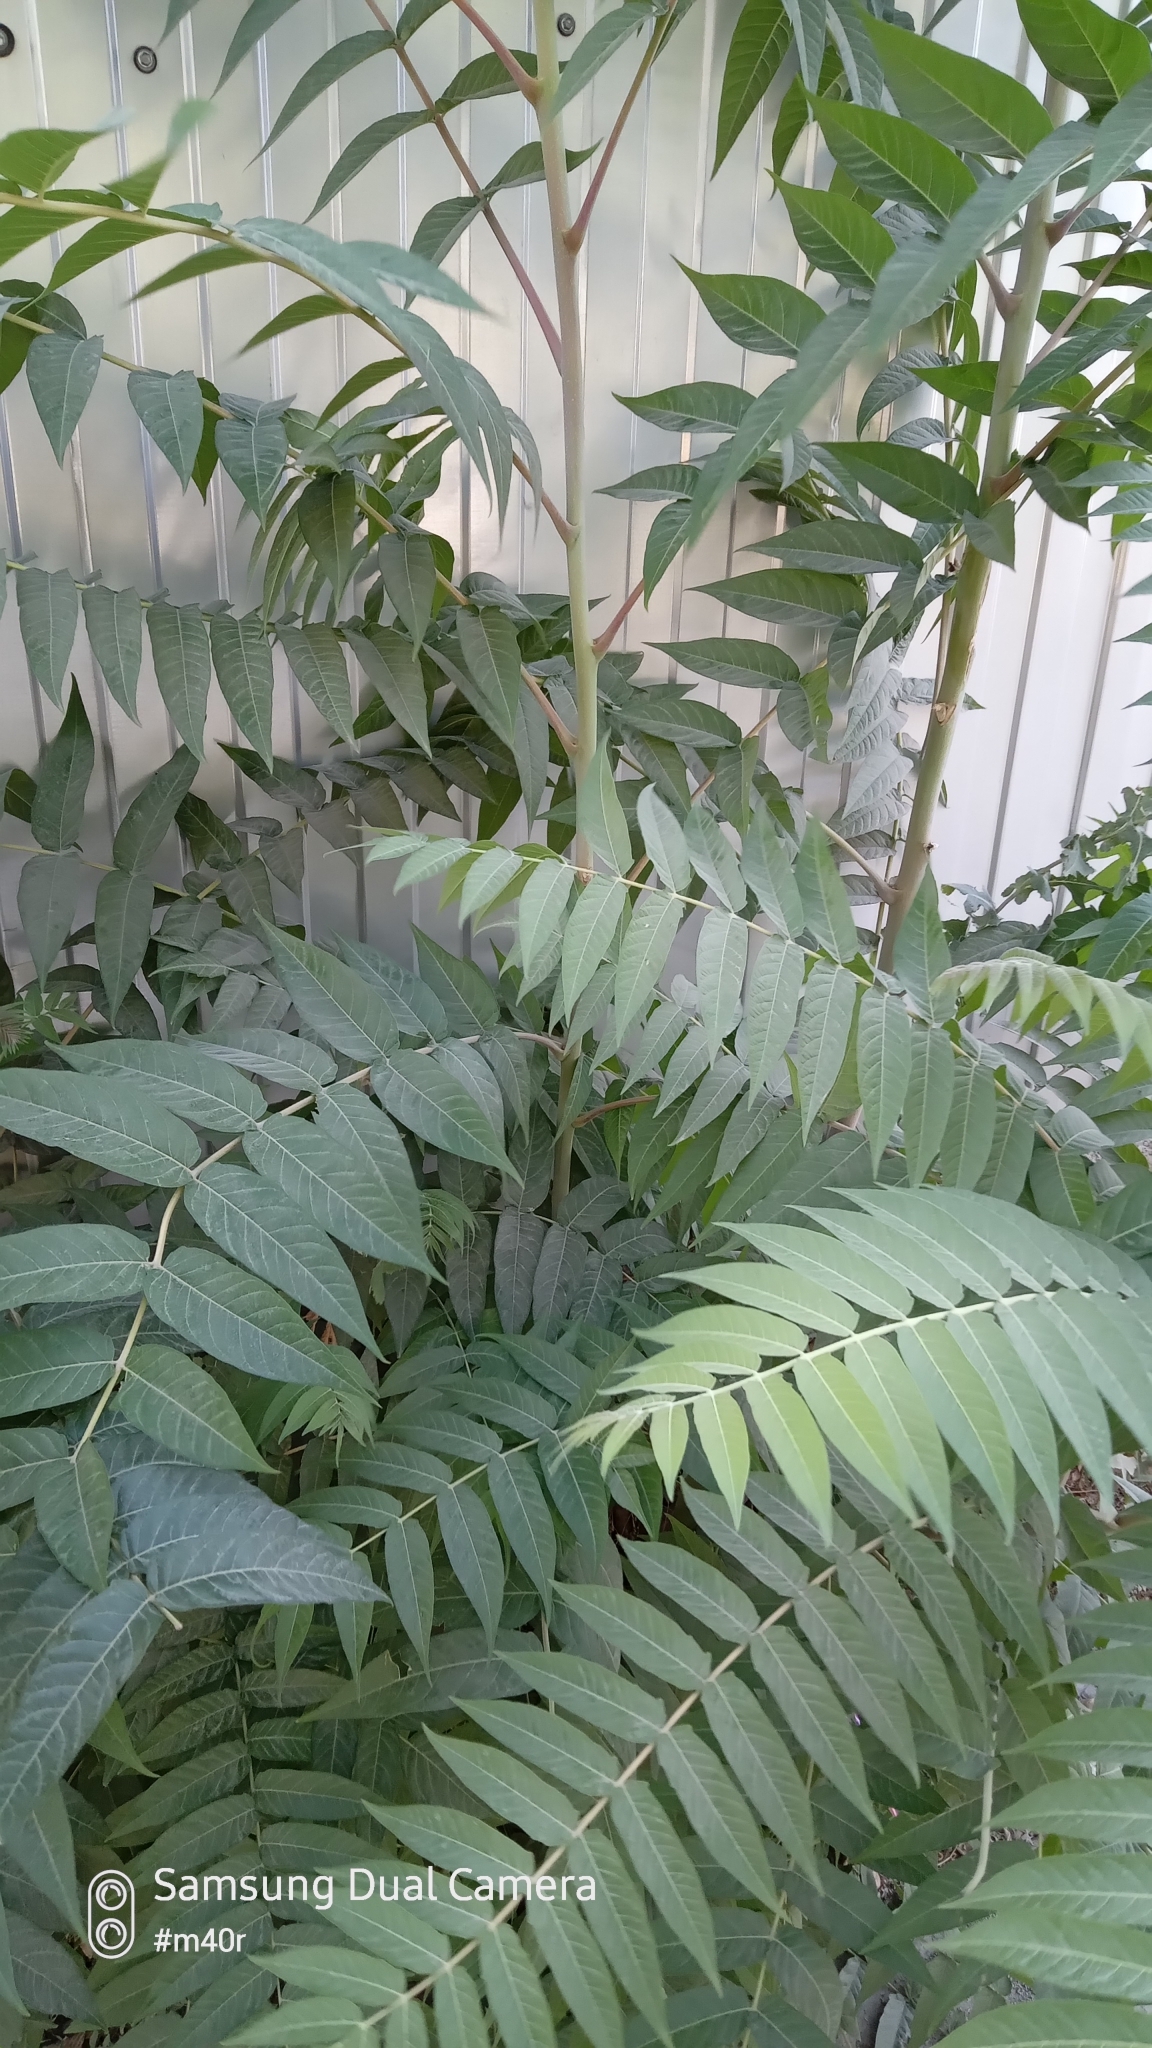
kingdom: Plantae
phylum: Tracheophyta
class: Magnoliopsida
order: Sapindales
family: Simaroubaceae
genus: Ailanthus
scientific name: Ailanthus altissima
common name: Tree-of-heaven
